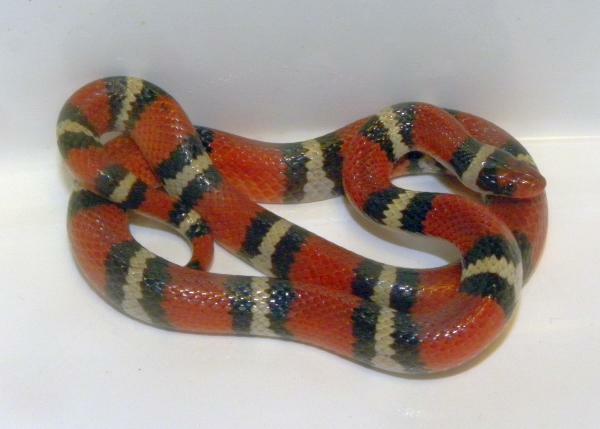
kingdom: Animalia
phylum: Chordata
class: Squamata
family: Colubridae
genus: Lampropeltis
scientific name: Lampropeltis elapsoides
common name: Scarlet kingsnake
